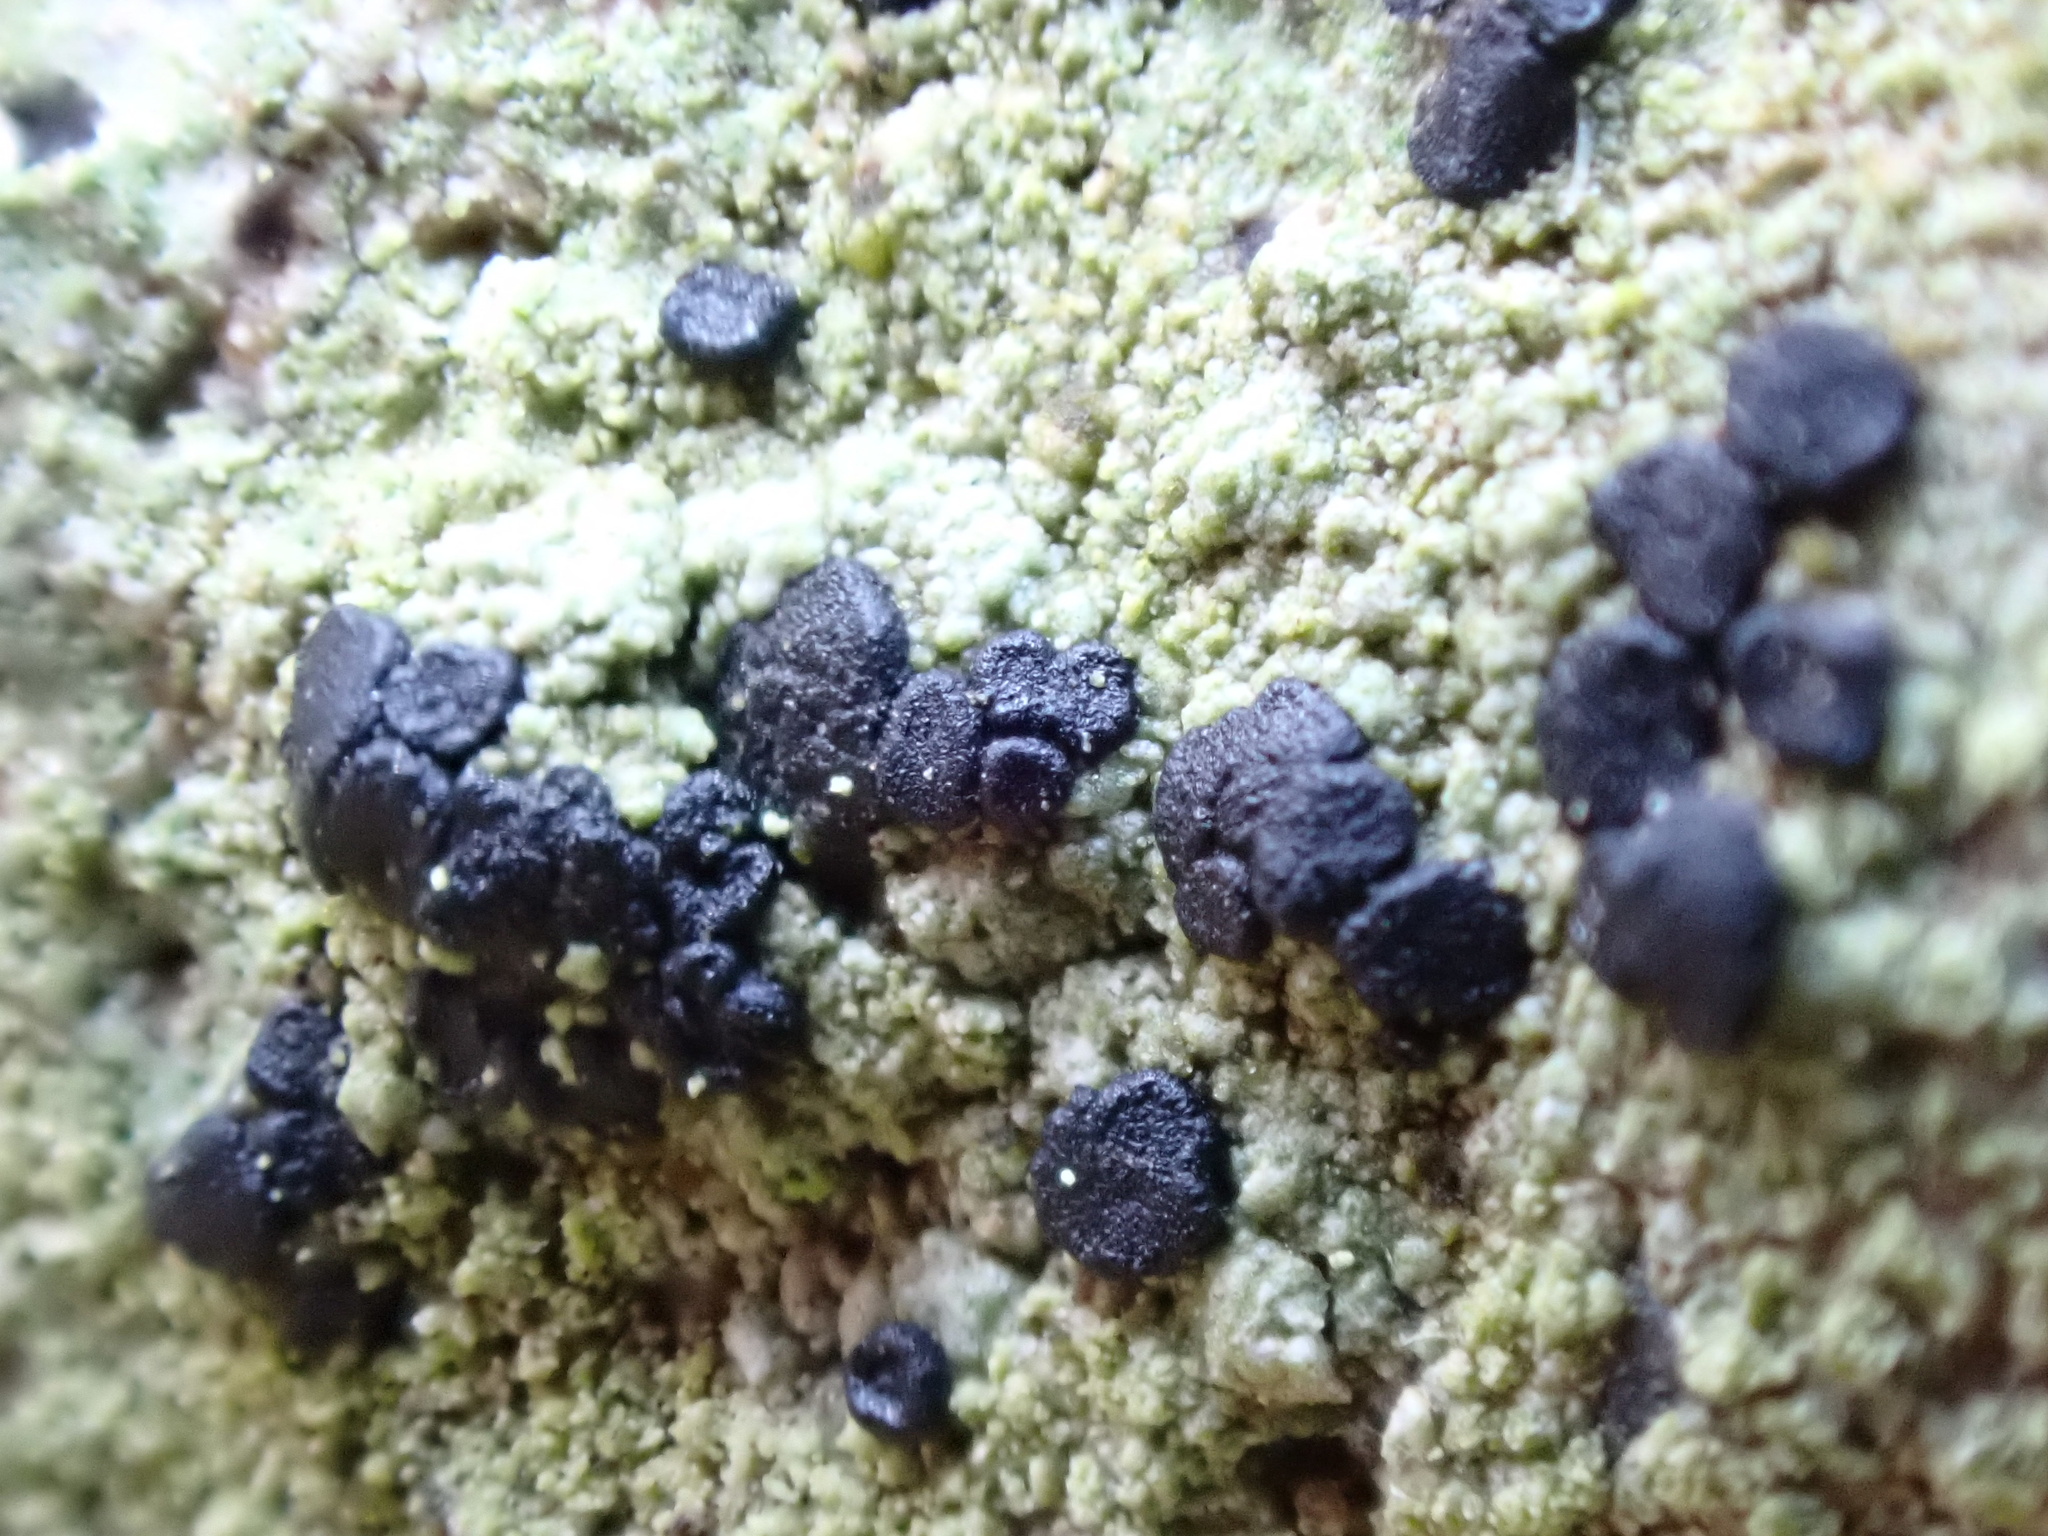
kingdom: Fungi
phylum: Ascomycota
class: Lecanoromycetes
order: Lecanorales
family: Lecanoraceae
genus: Lecidella
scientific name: Lecidella scabra
